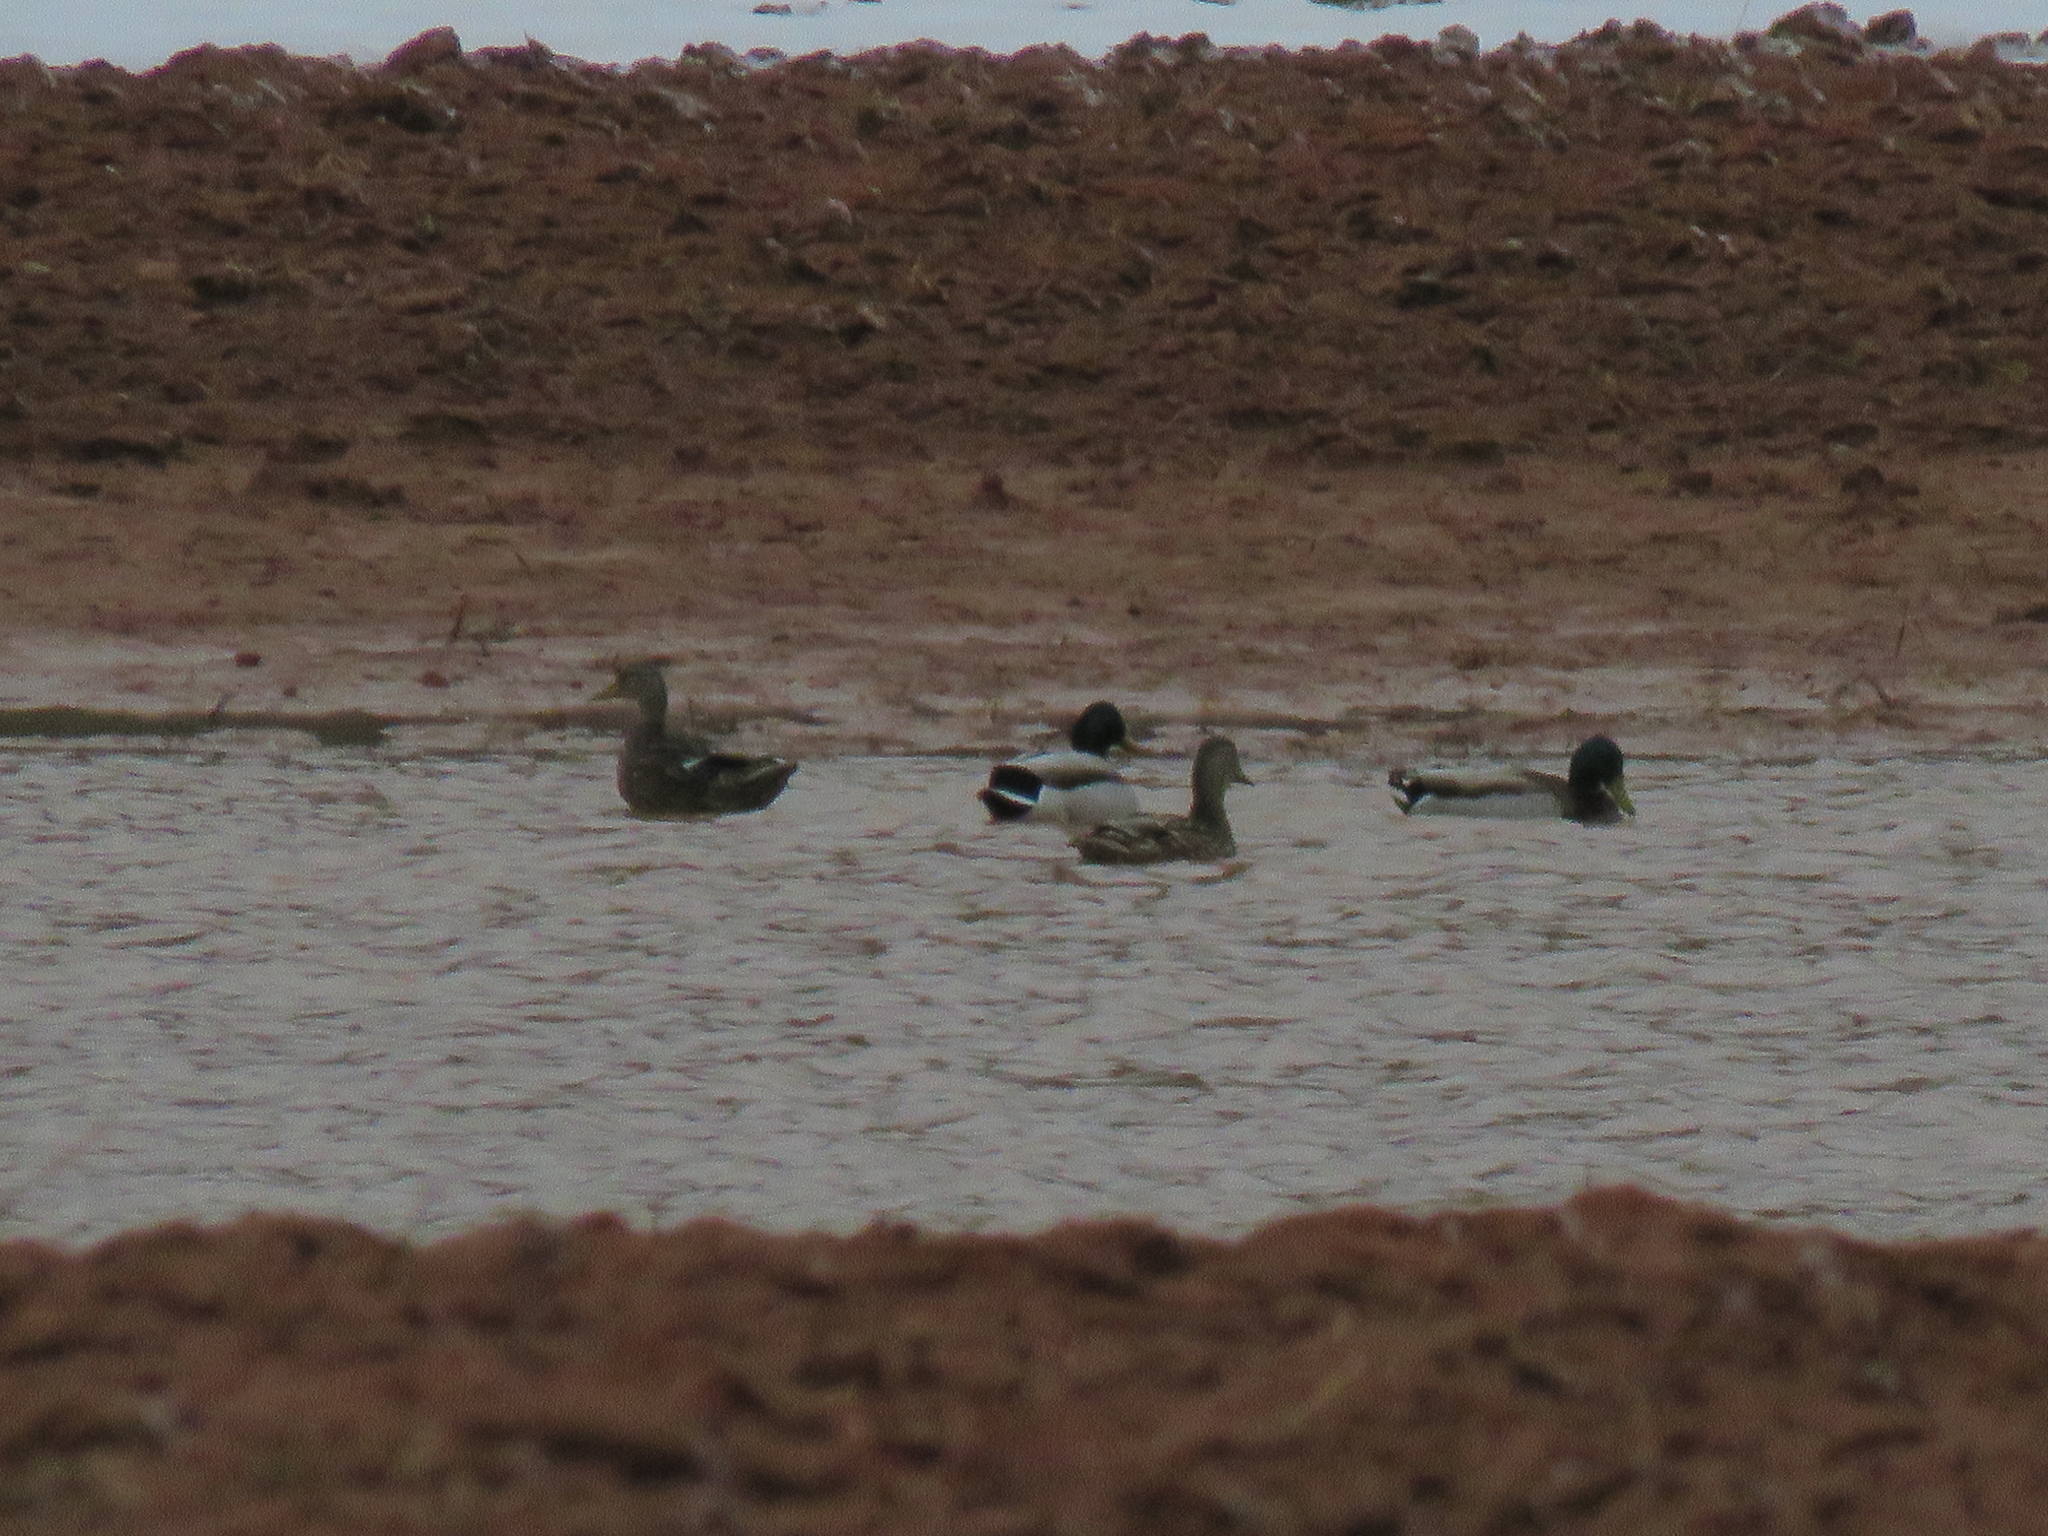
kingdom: Animalia
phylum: Chordata
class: Aves
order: Anseriformes
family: Anatidae
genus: Anas
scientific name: Anas platyrhynchos
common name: Mallard
